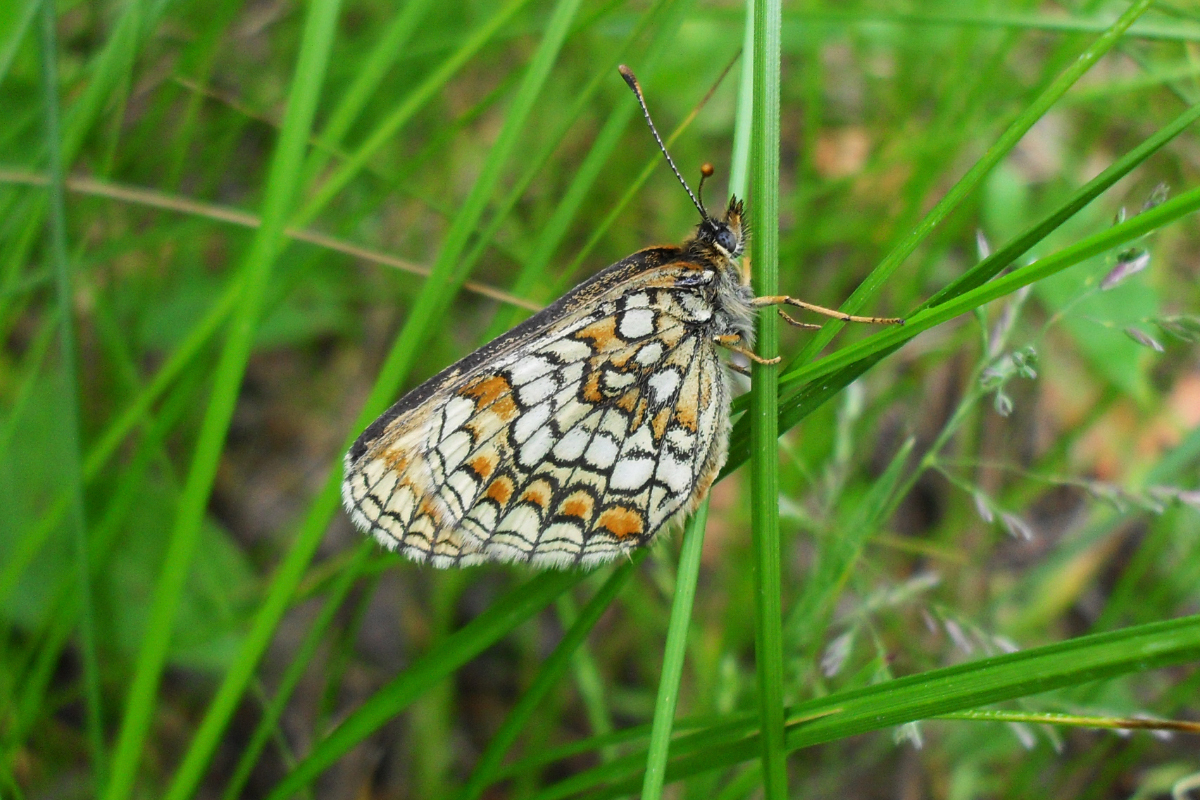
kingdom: Animalia
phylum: Arthropoda
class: Insecta
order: Lepidoptera
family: Nymphalidae
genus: Melitaea
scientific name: Melitaea athalia
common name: Heath fritillary
